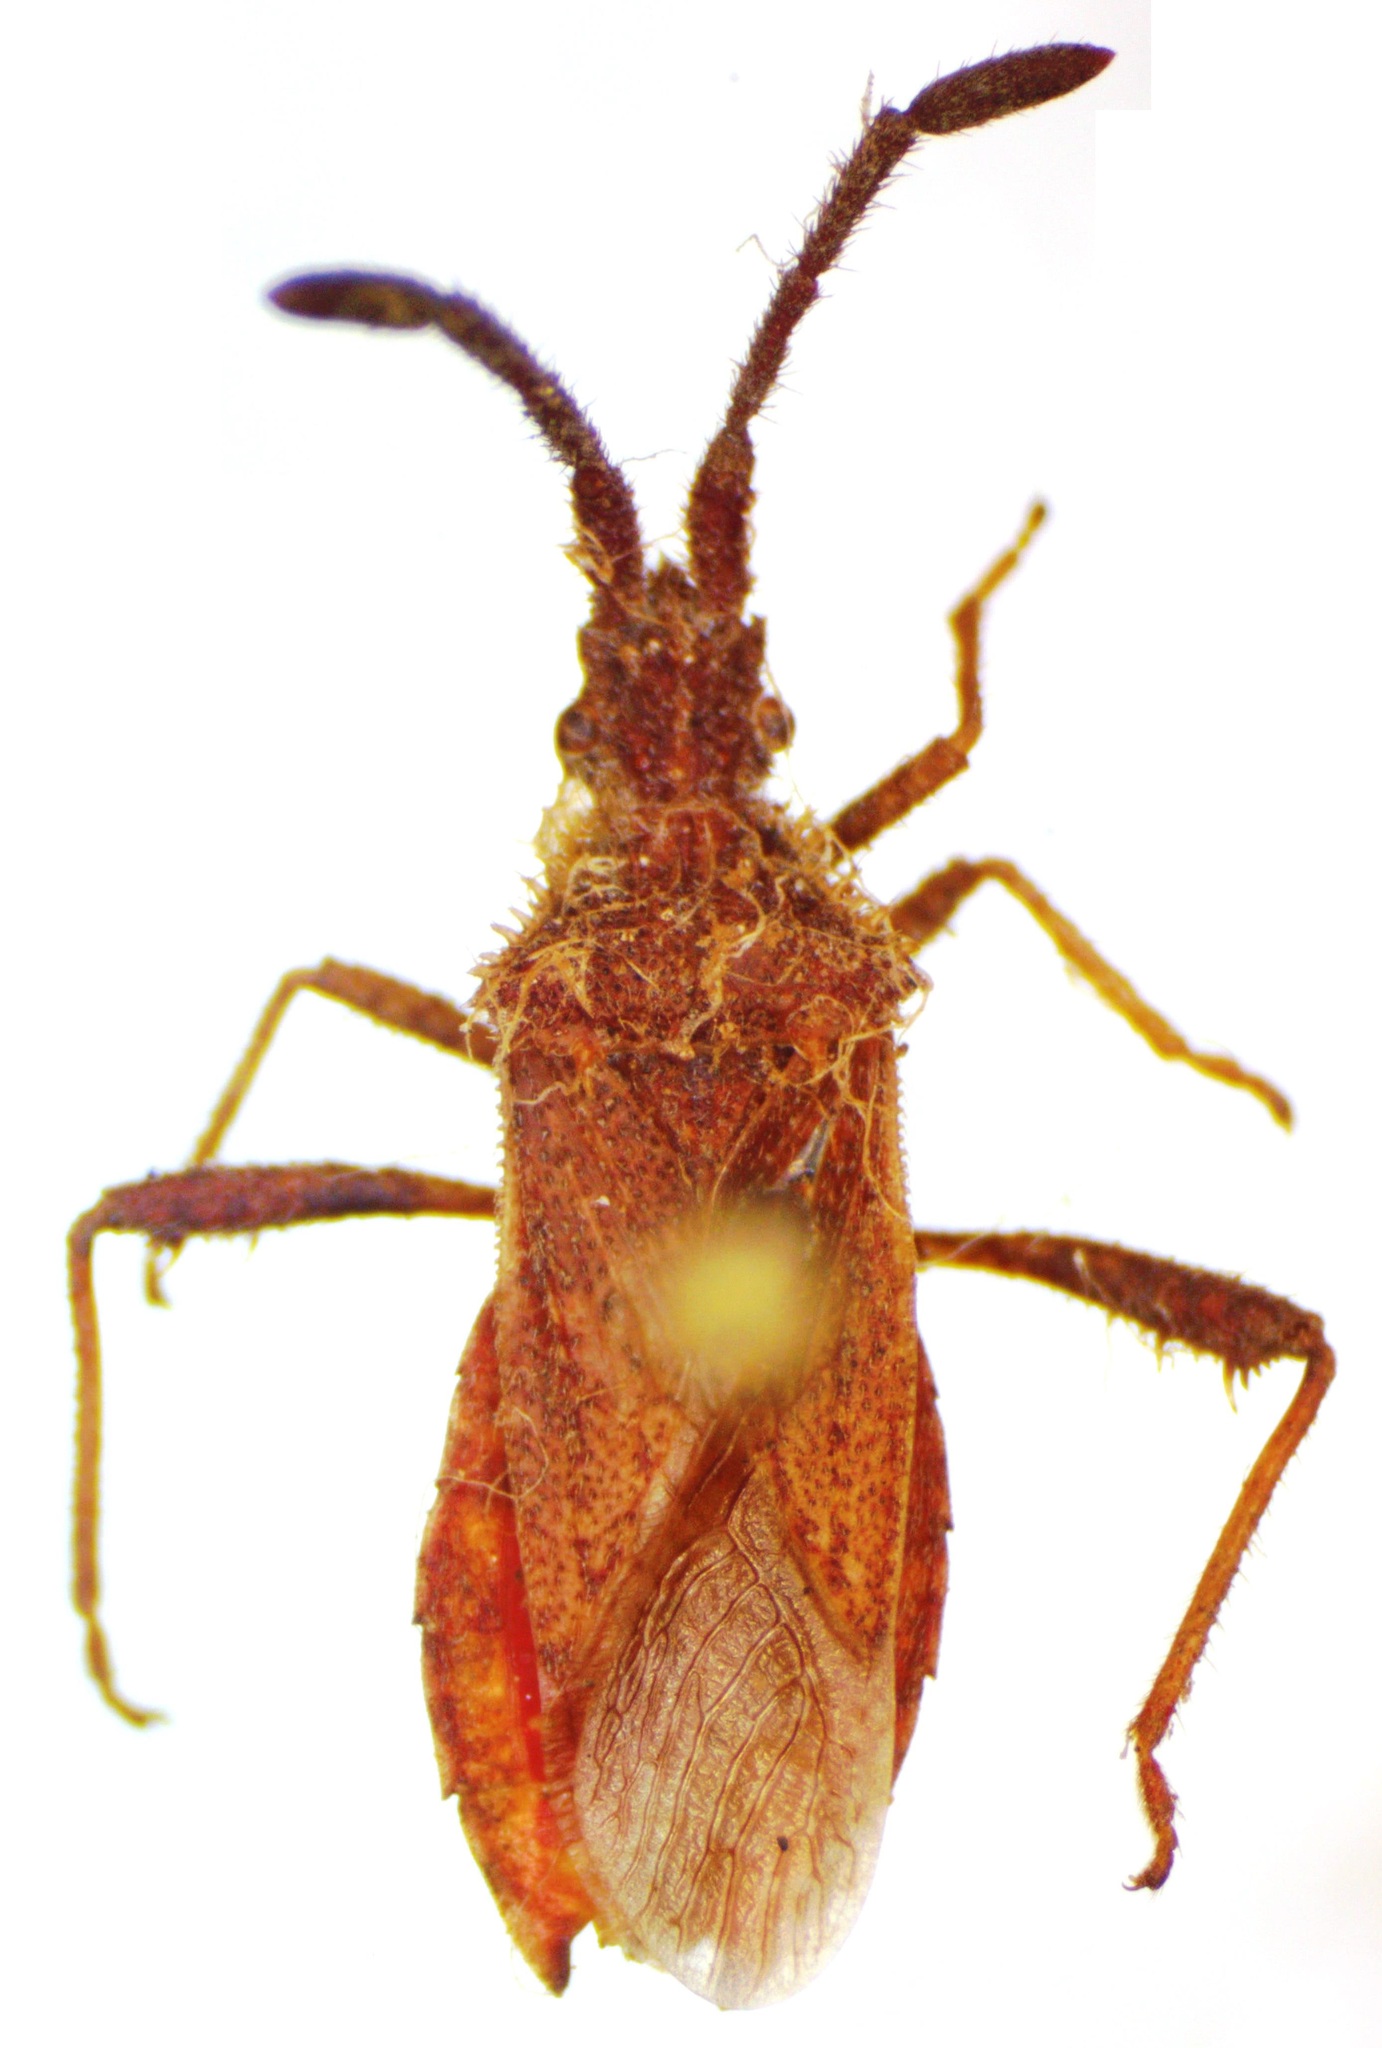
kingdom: Animalia
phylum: Arthropoda
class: Insecta
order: Hemiptera
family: Coreidae
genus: Coriomeris
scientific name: Coriomeris denticulatus
